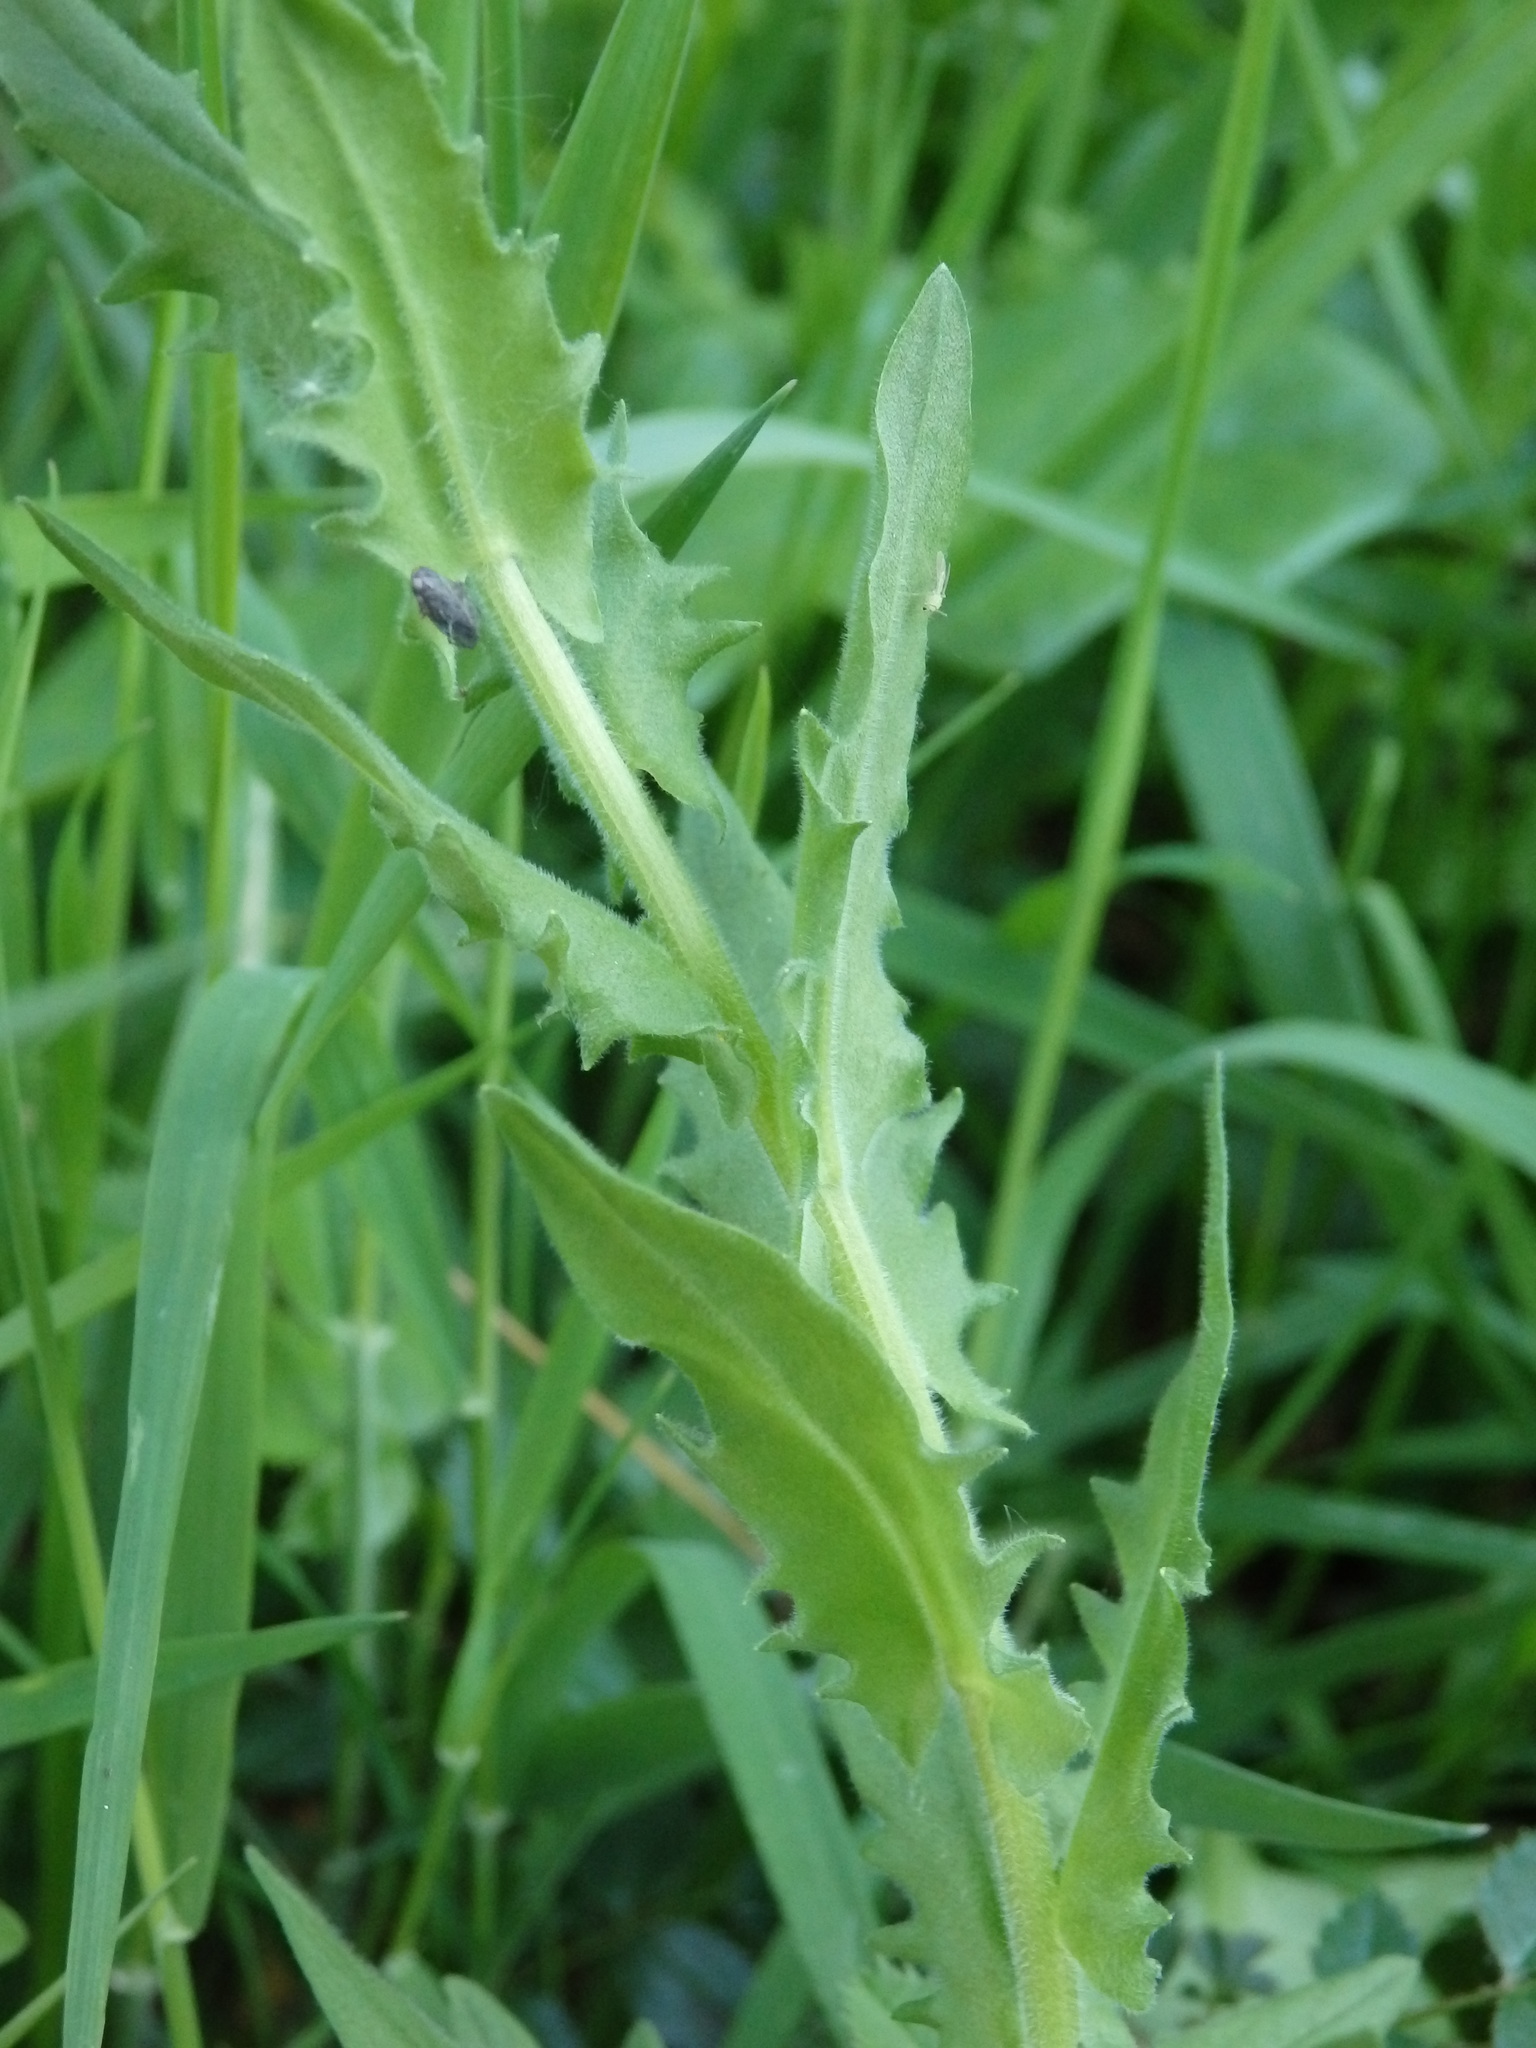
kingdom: Plantae
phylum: Tracheophyta
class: Magnoliopsida
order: Brassicales
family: Brassicaceae
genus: Lepidium
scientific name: Lepidium heterophyllum
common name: Smith's pepperwort
